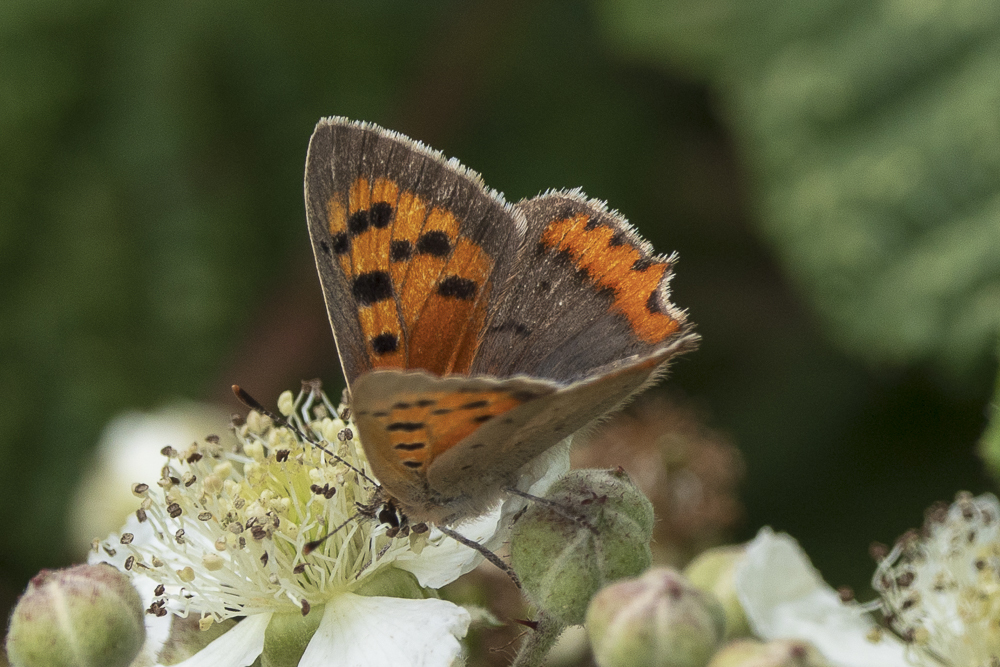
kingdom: Animalia
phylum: Arthropoda
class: Insecta
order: Lepidoptera
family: Lycaenidae
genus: Lycaena
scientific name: Lycaena phlaeas
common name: Small copper
